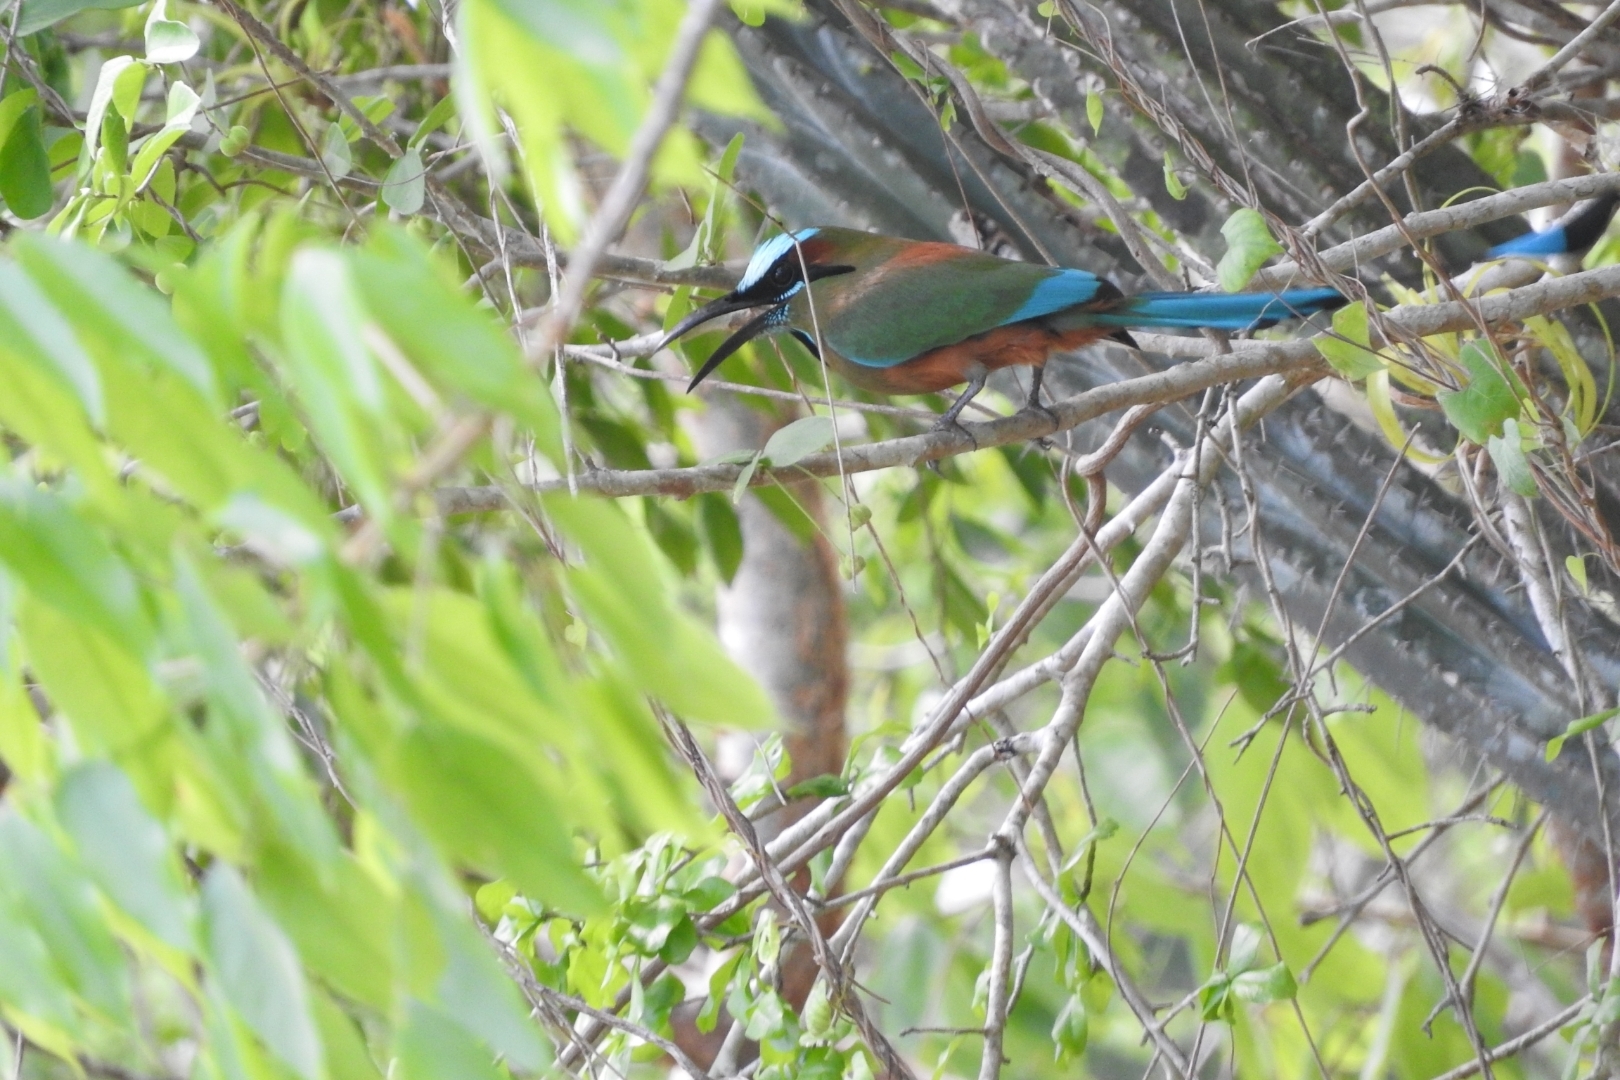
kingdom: Animalia
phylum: Chordata
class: Aves
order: Coraciiformes
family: Momotidae
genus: Eumomota
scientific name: Eumomota superciliosa
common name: Turquoise-browed motmot
